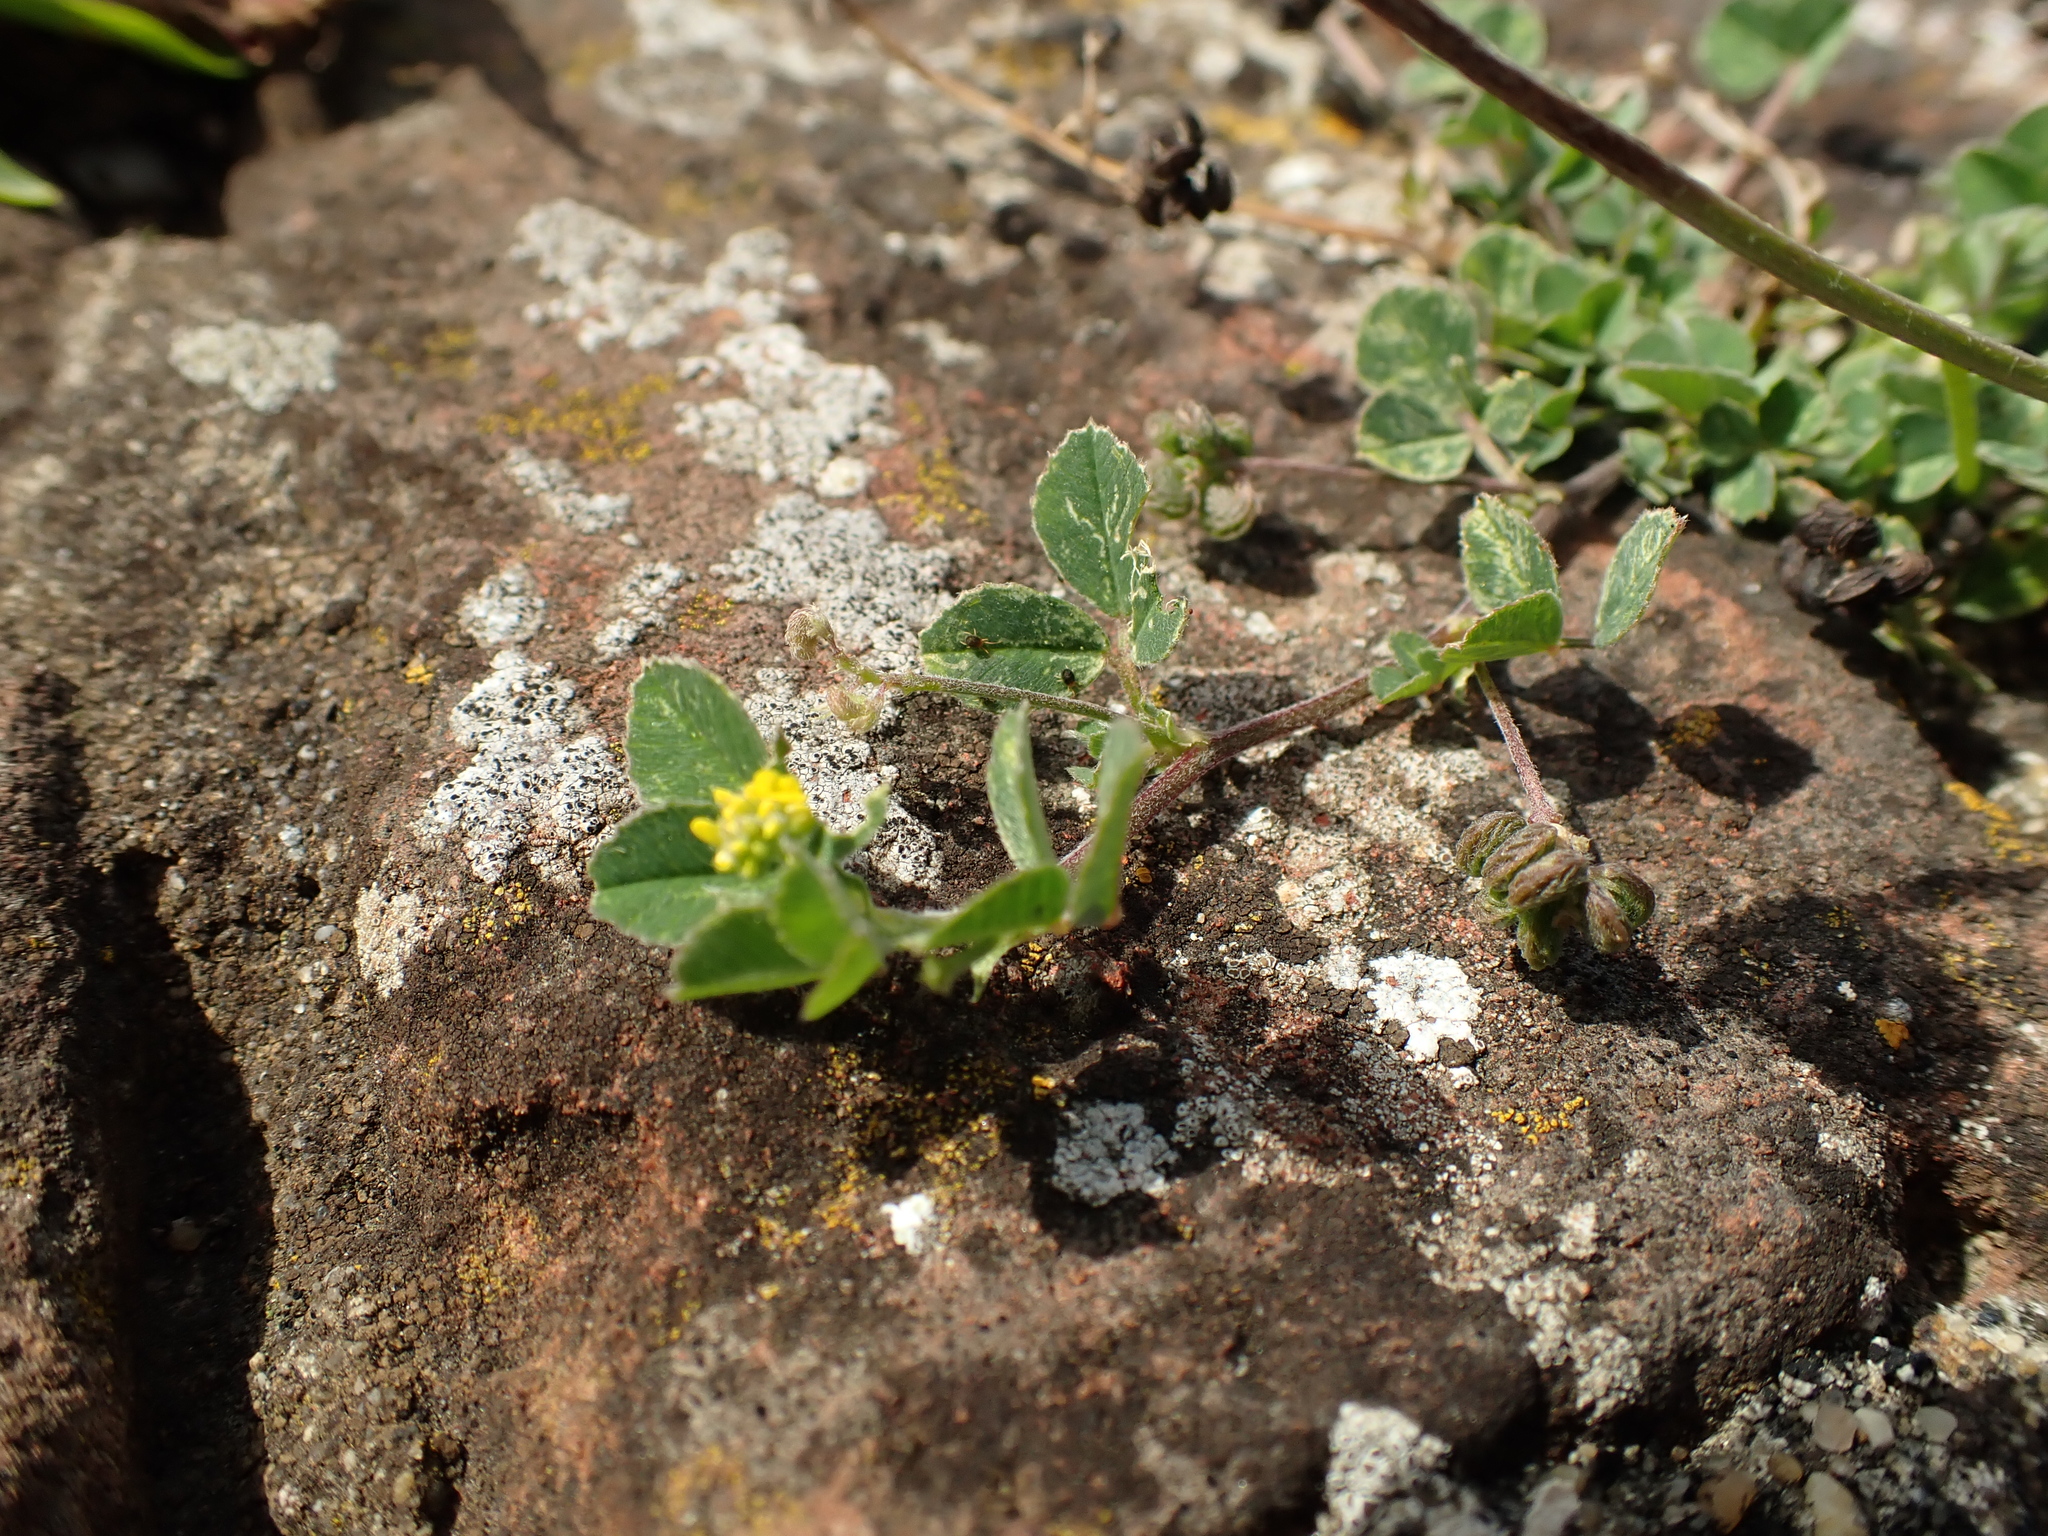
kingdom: Plantae
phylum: Tracheophyta
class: Magnoliopsida
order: Fabales
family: Fabaceae
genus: Medicago
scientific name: Medicago lupulina
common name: Black medick
